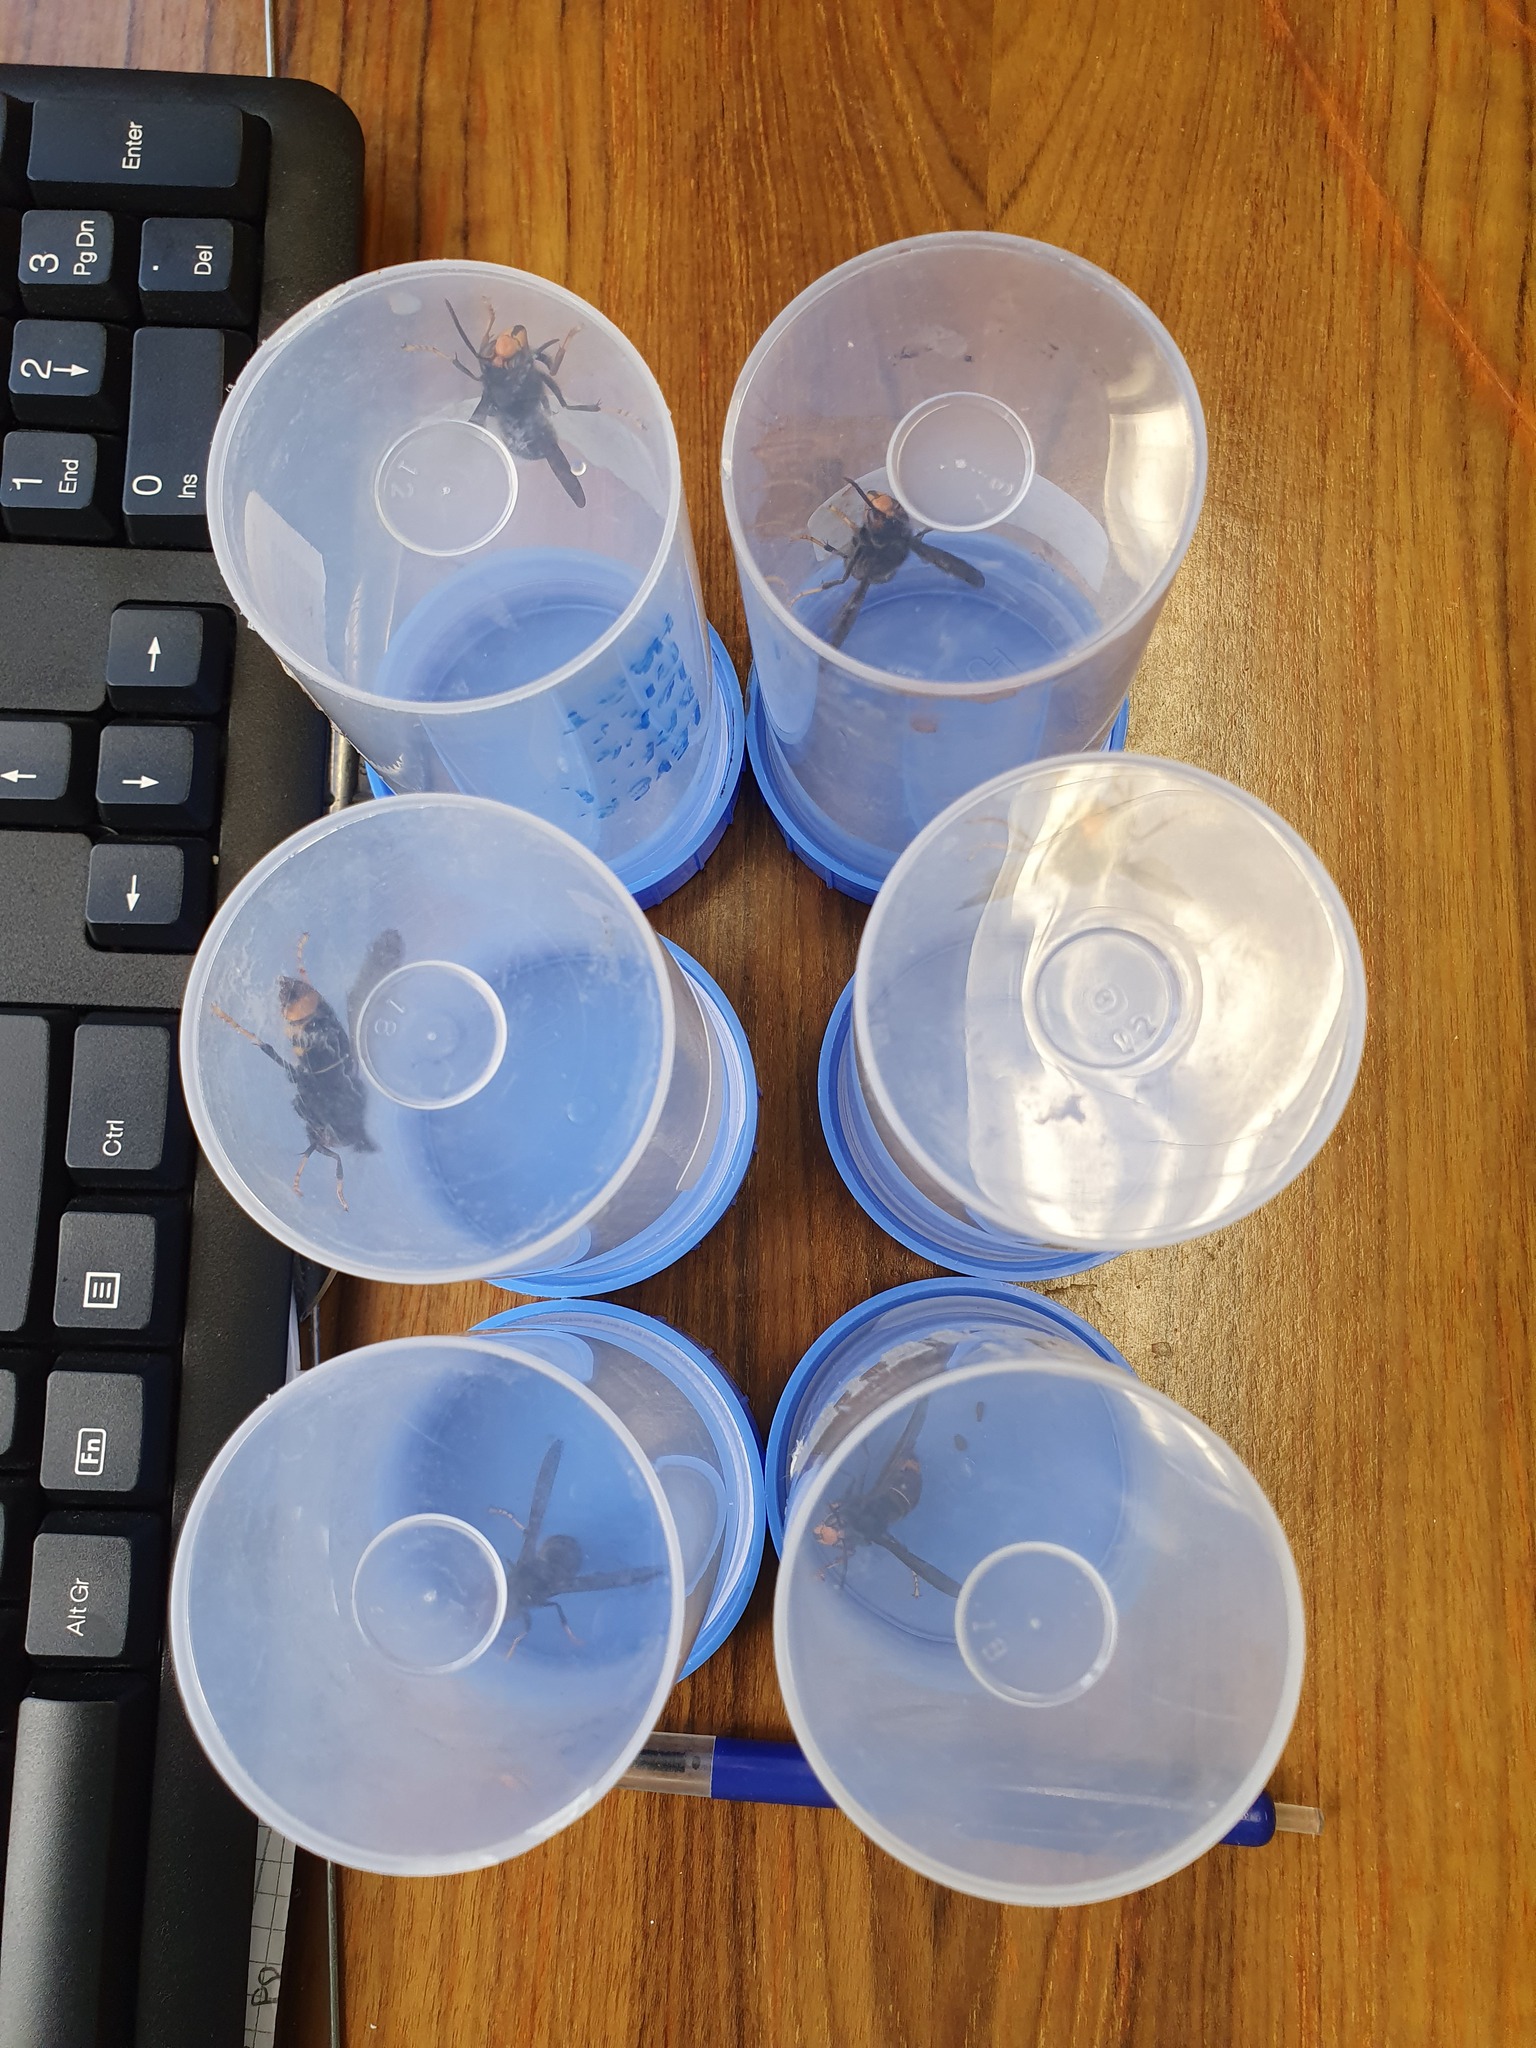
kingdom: Animalia
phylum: Arthropoda
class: Insecta
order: Hymenoptera
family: Vespidae
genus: Vespa
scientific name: Vespa velutina
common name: Asian hornet
